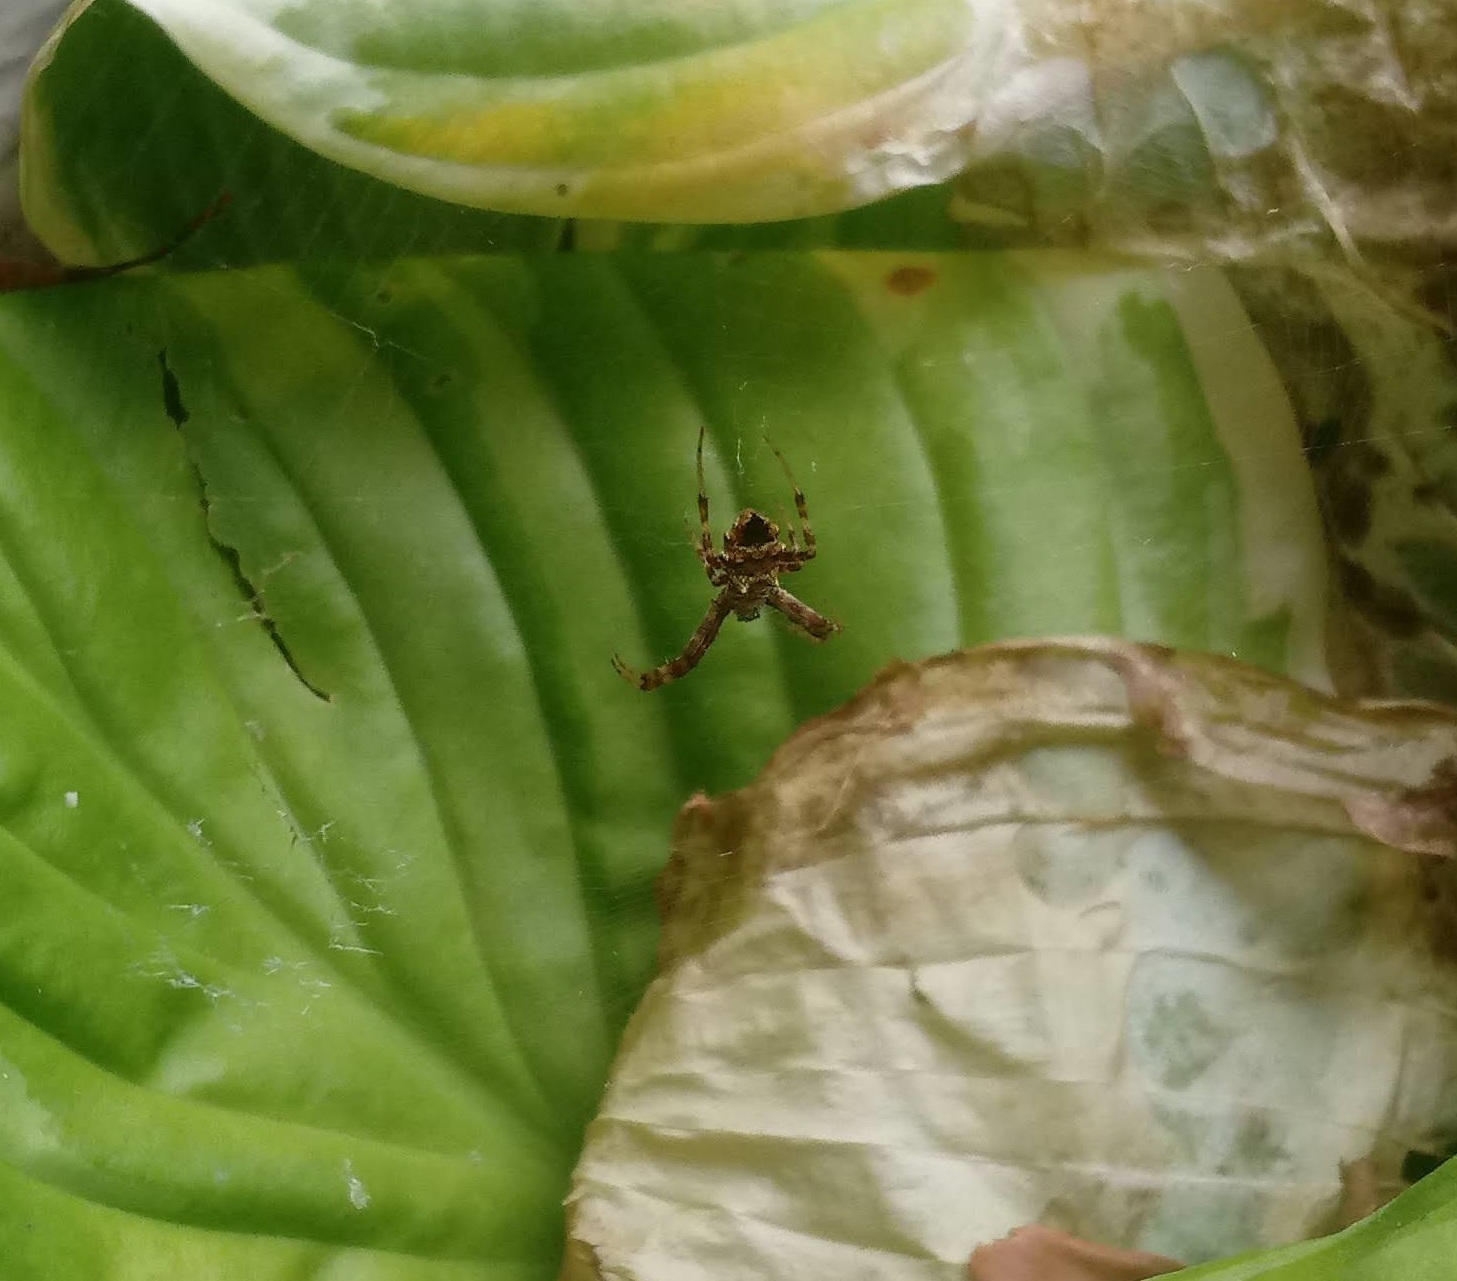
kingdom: Animalia
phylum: Arthropoda
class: Arachnida
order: Araneae
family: Araneidae
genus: Gea
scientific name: Gea heptagon
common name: Orb weavers
